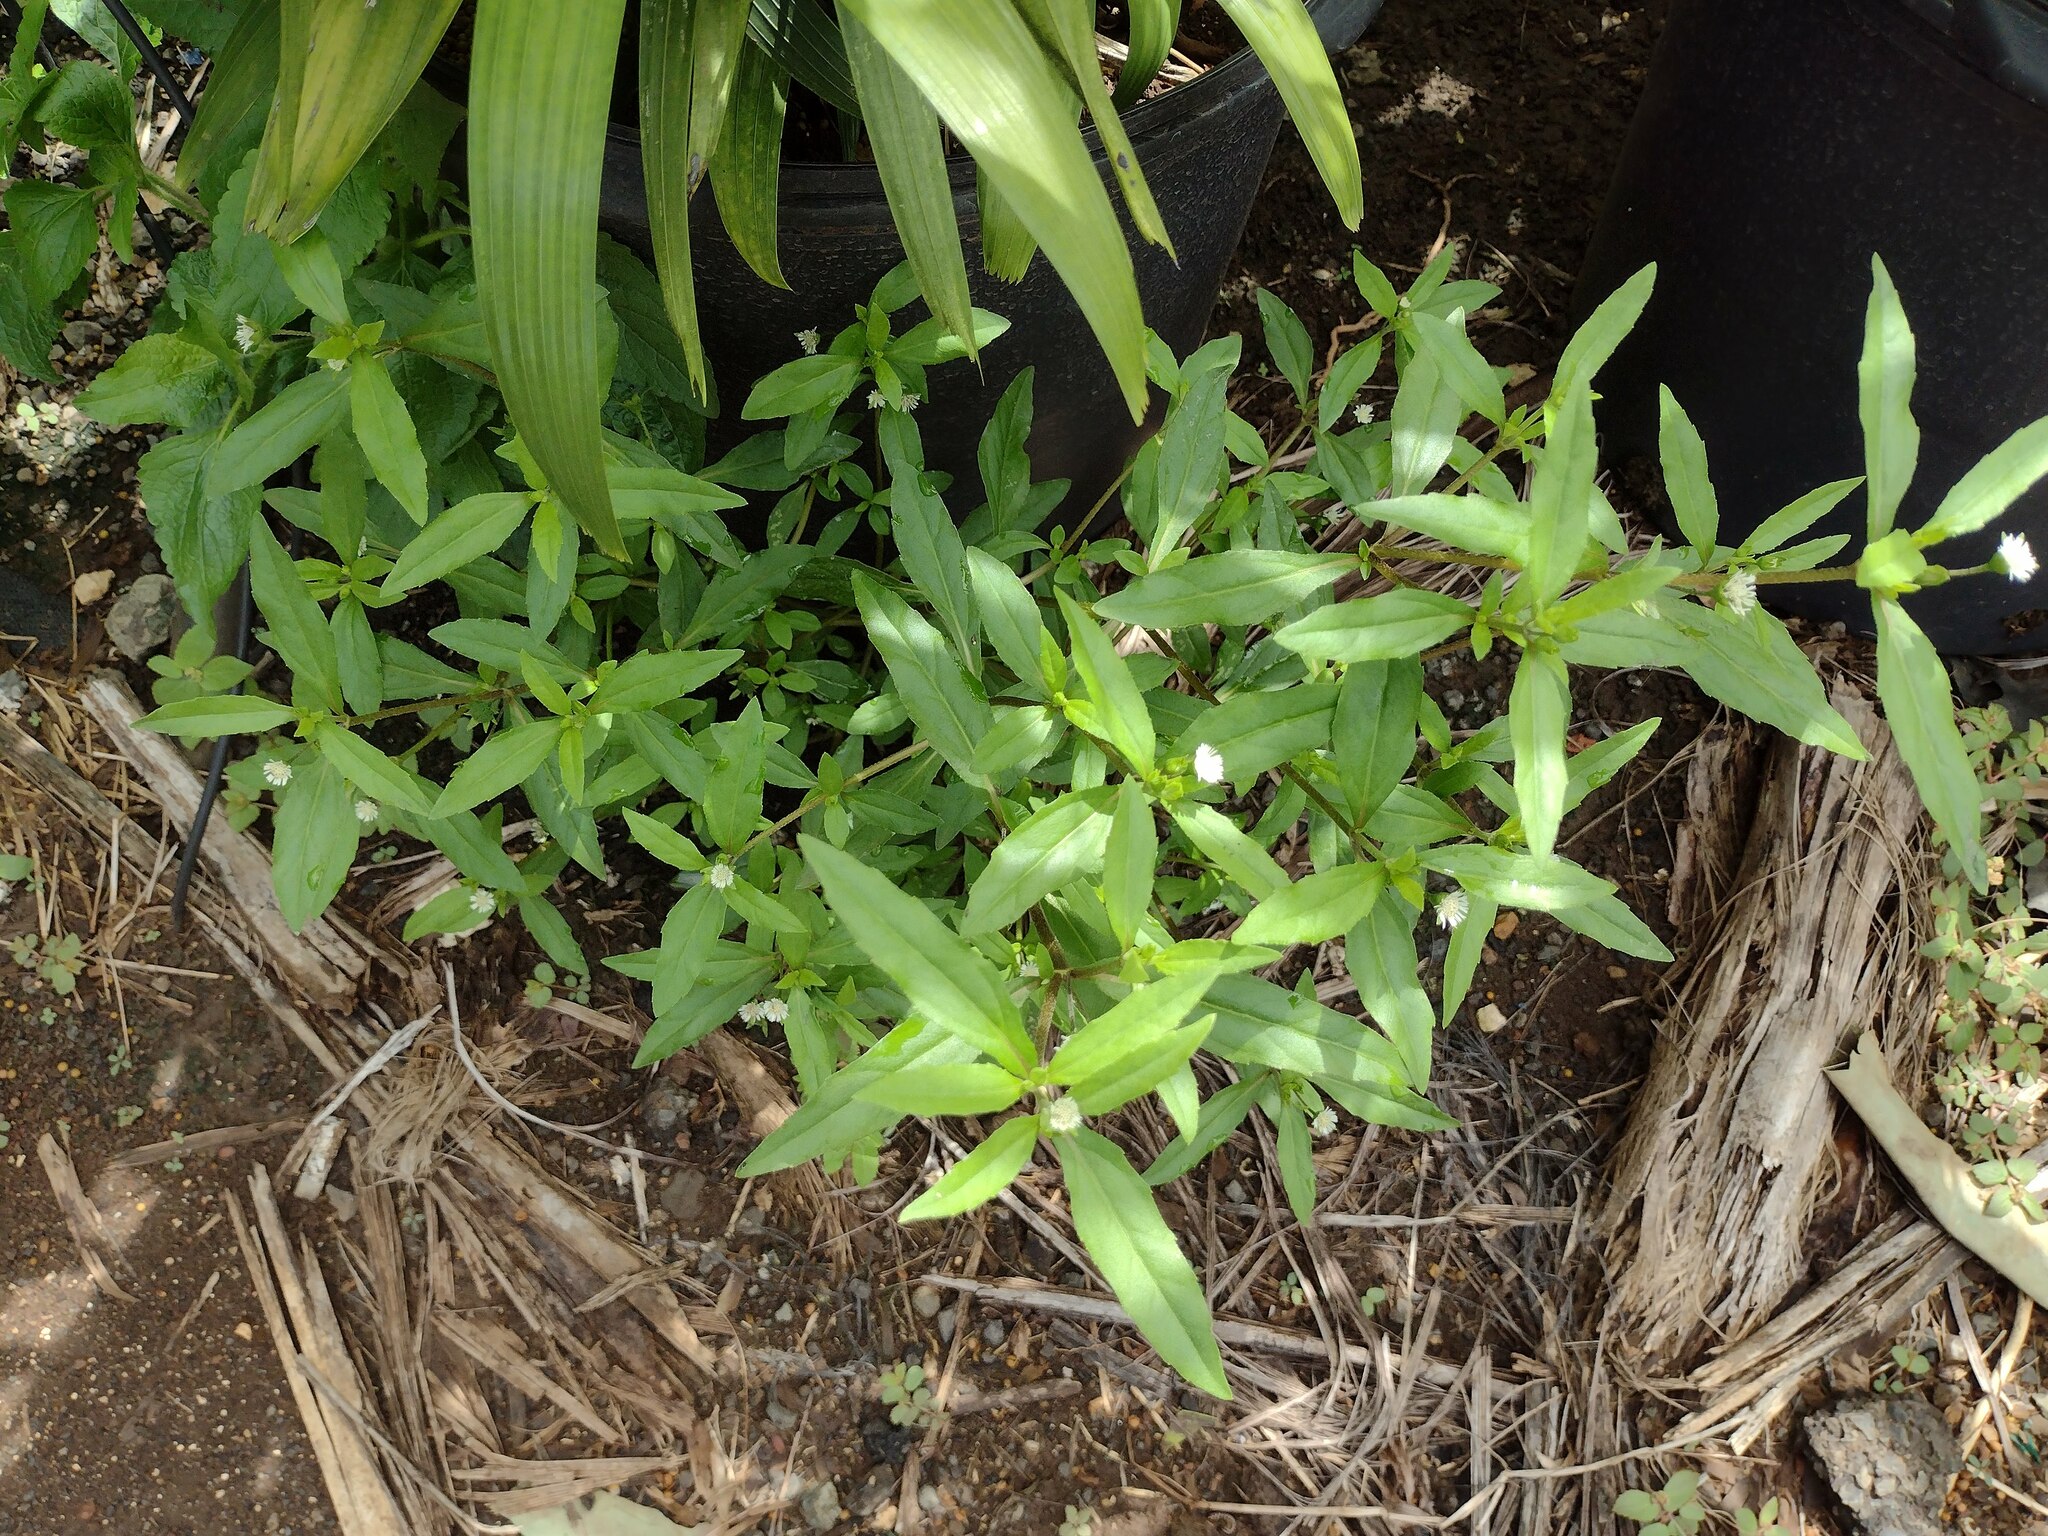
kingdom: Plantae
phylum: Tracheophyta
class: Magnoliopsida
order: Asterales
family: Asteraceae
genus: Eclipta
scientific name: Eclipta prostrata
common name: False daisy
